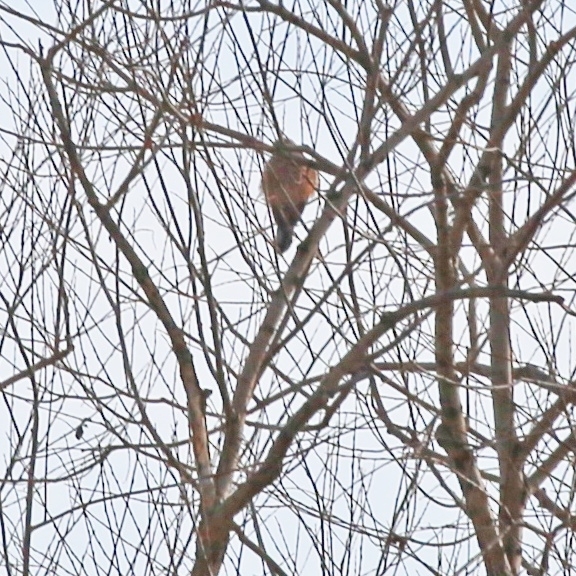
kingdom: Animalia
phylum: Chordata
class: Aves
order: Falconiformes
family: Falconidae
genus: Falco
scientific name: Falco tinnunculus
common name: Common kestrel
